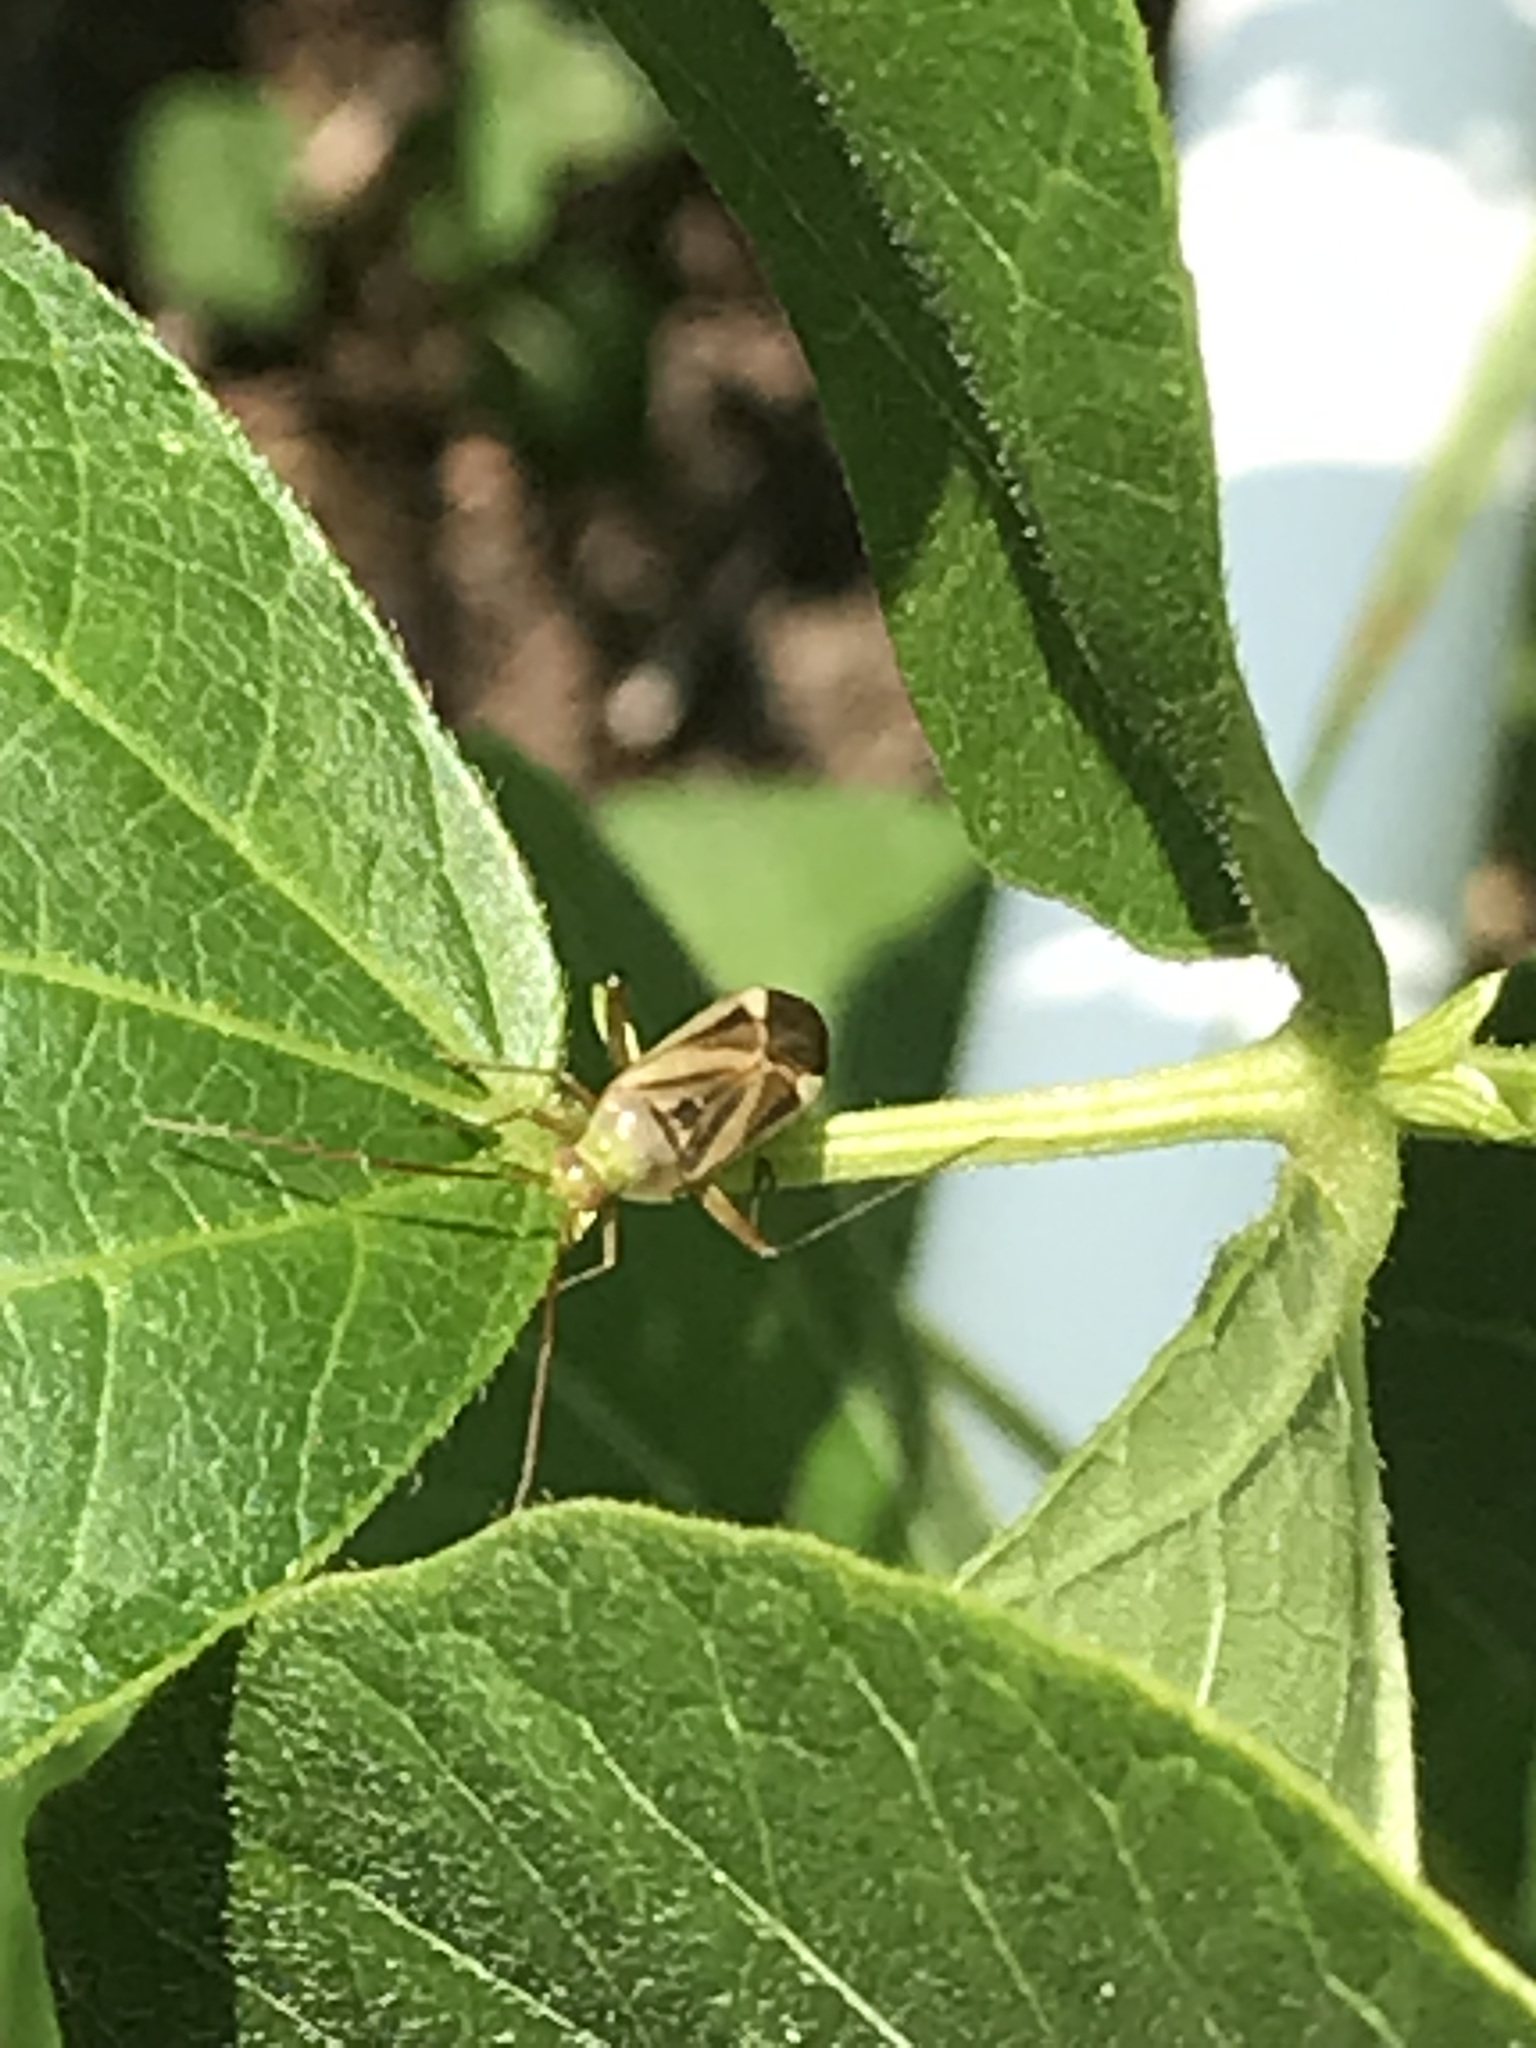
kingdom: Animalia
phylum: Arthropoda
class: Insecta
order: Hemiptera
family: Miridae
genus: Adelphocoris
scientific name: Adelphocoris lineolatus
